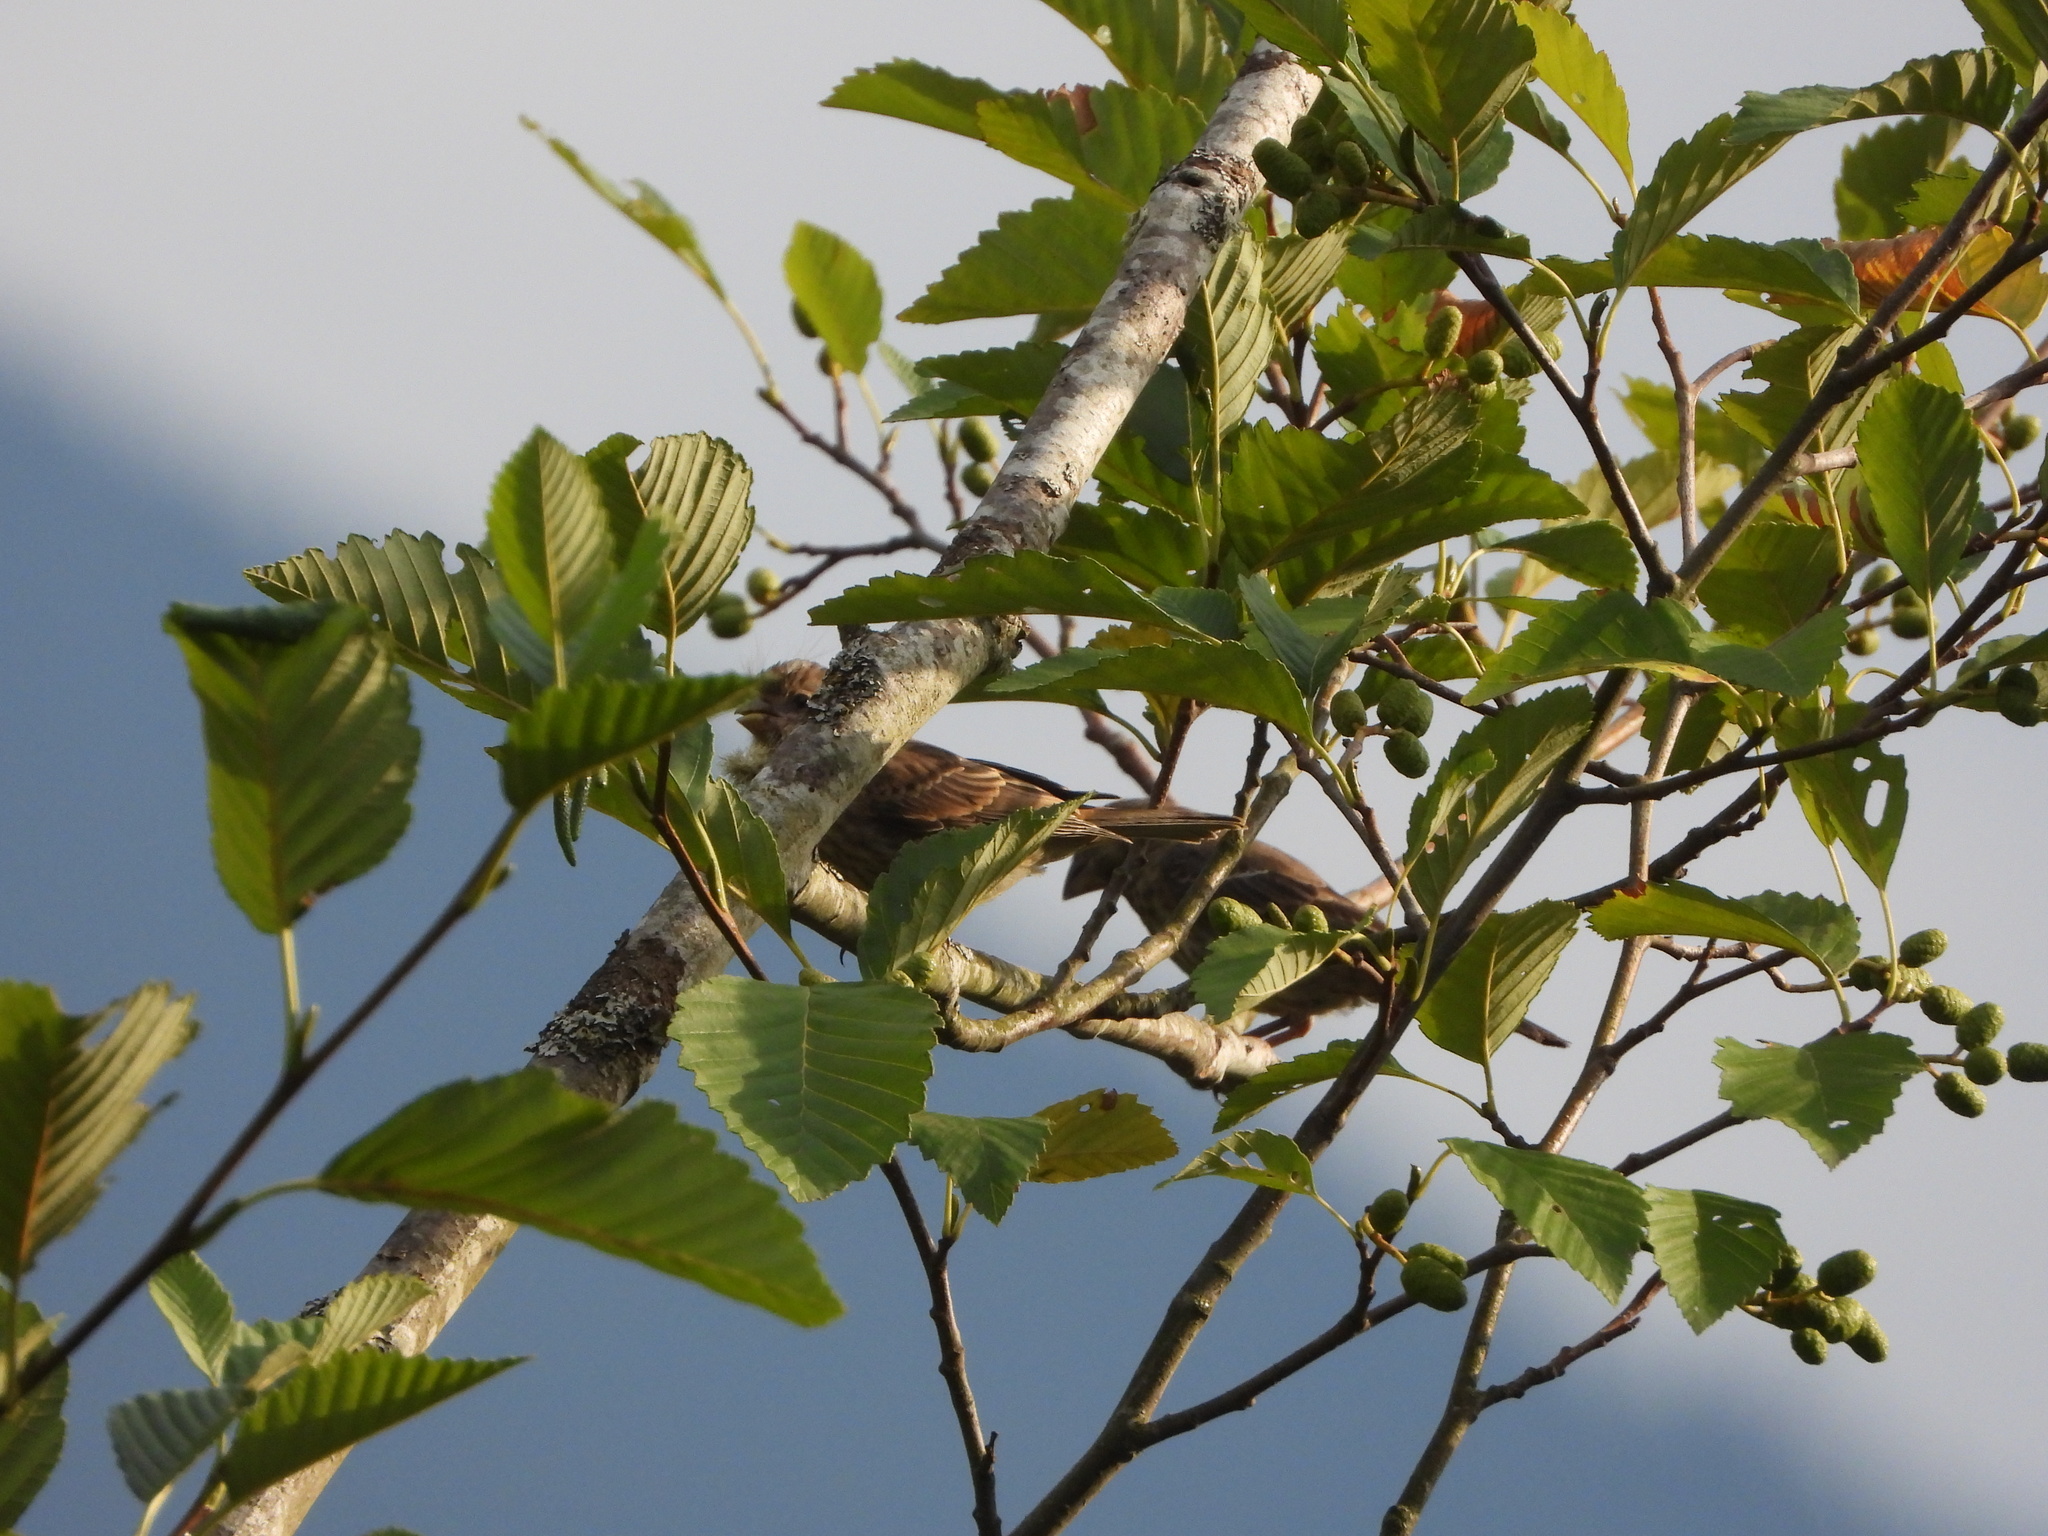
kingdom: Animalia
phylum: Chordata
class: Aves
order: Passeriformes
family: Fringillidae
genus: Haemorhous
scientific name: Haemorhous mexicanus
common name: House finch
